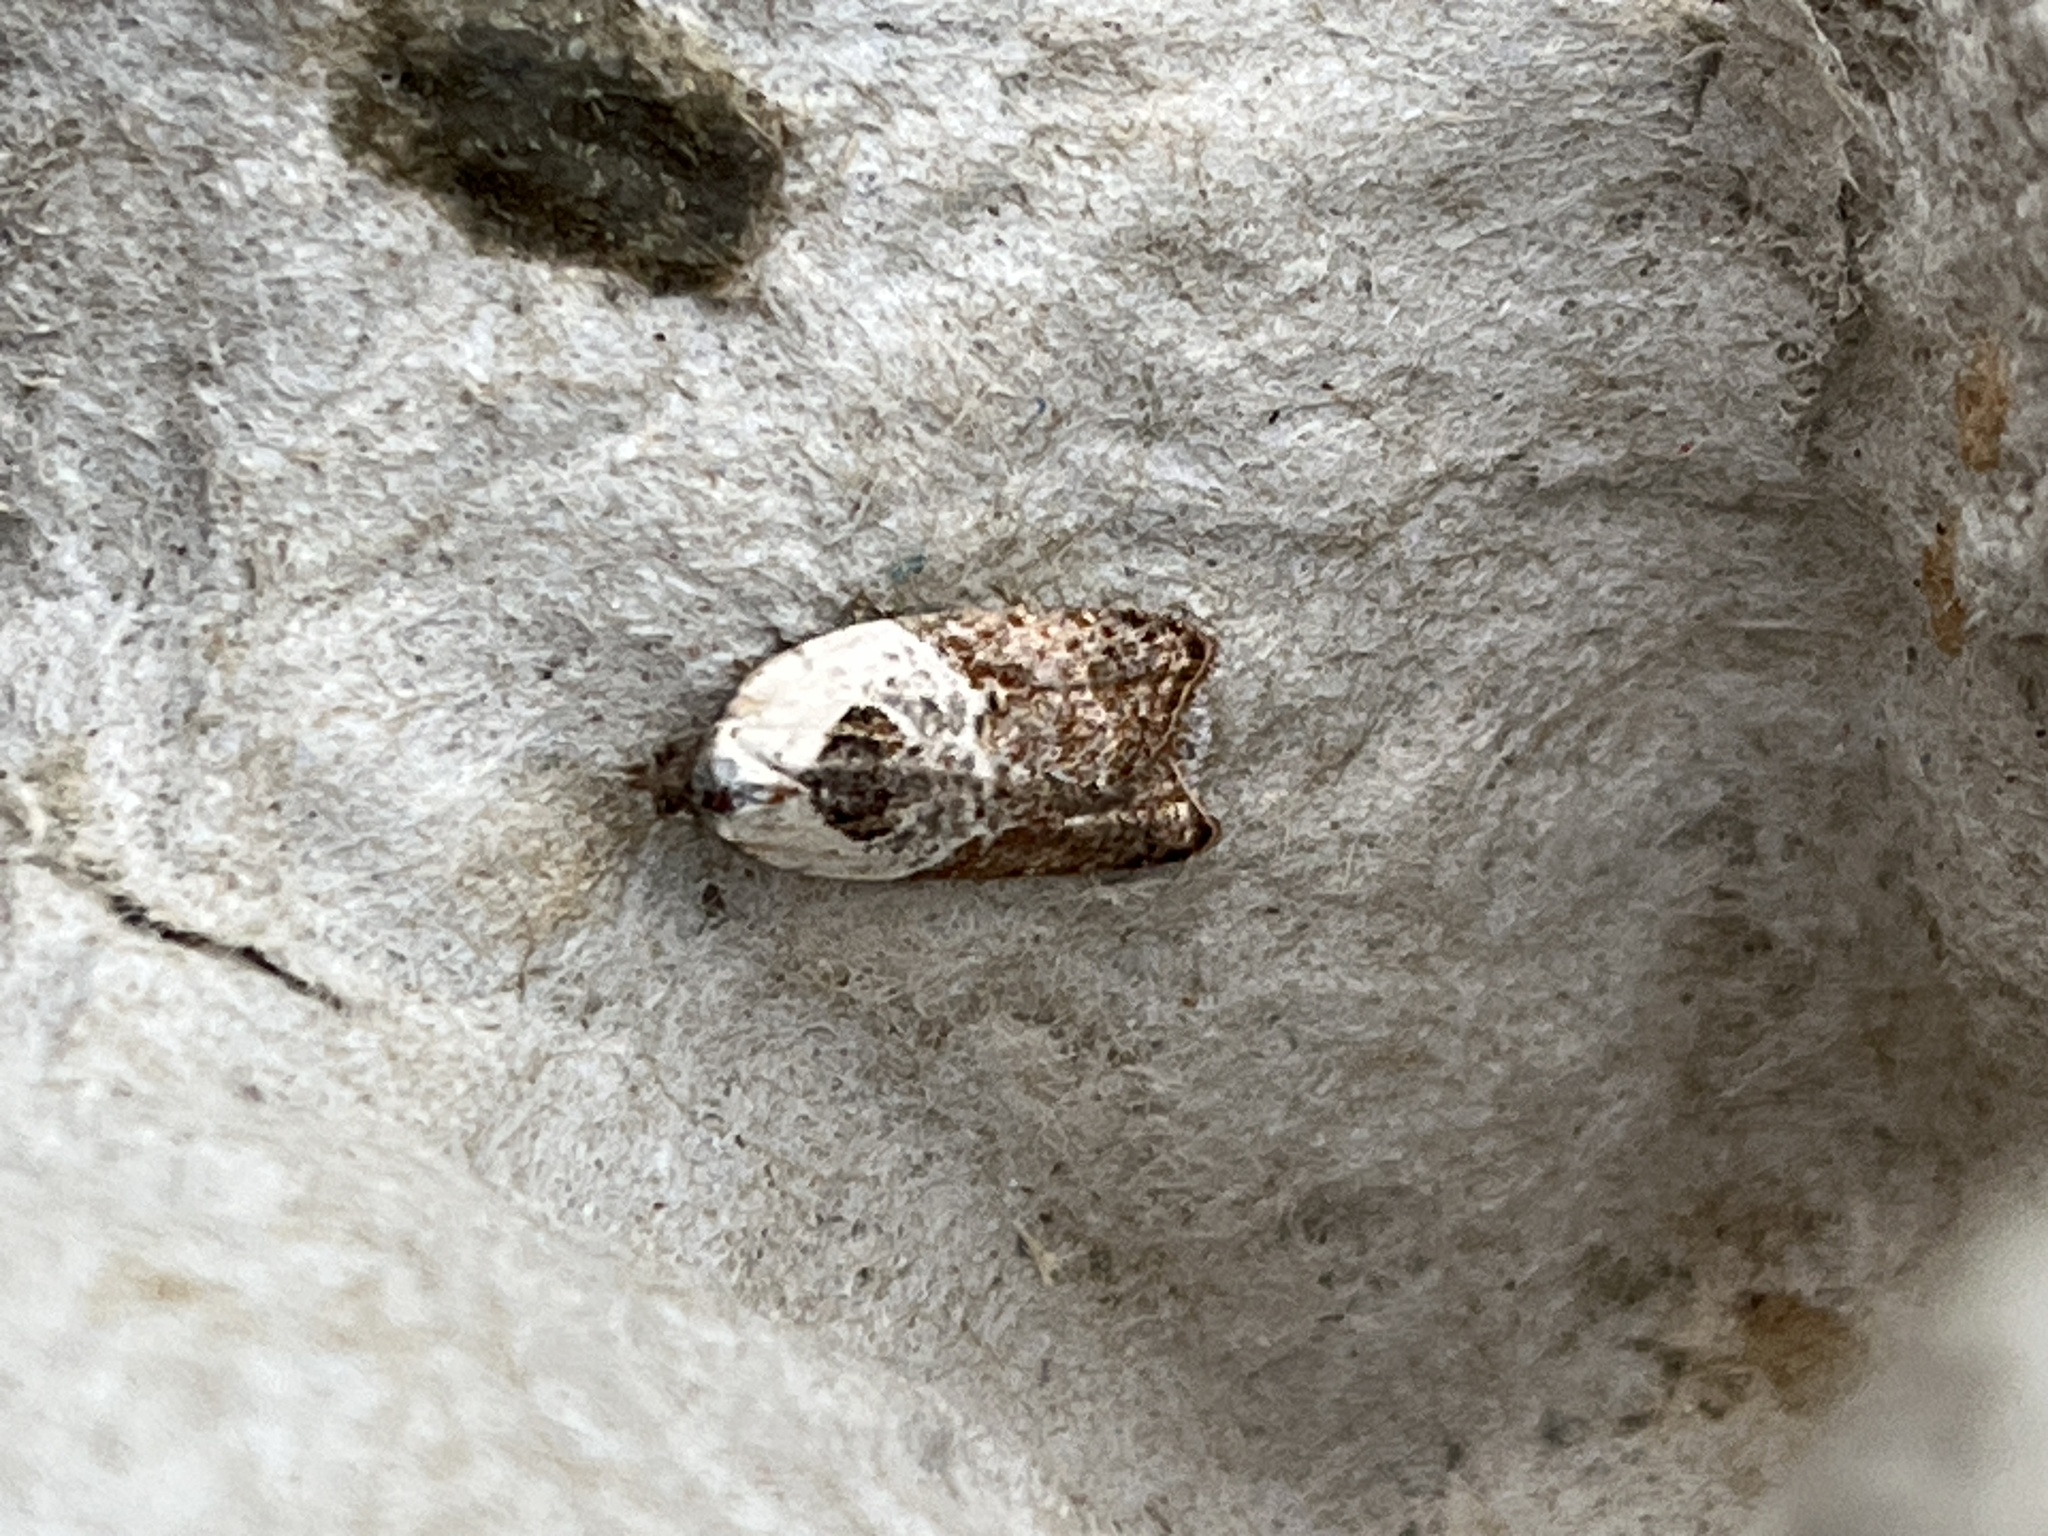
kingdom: Animalia
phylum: Arthropoda
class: Insecta
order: Lepidoptera
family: Tortricidae
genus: Acleris
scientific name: Acleris variegana
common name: Garden rose tortrix
